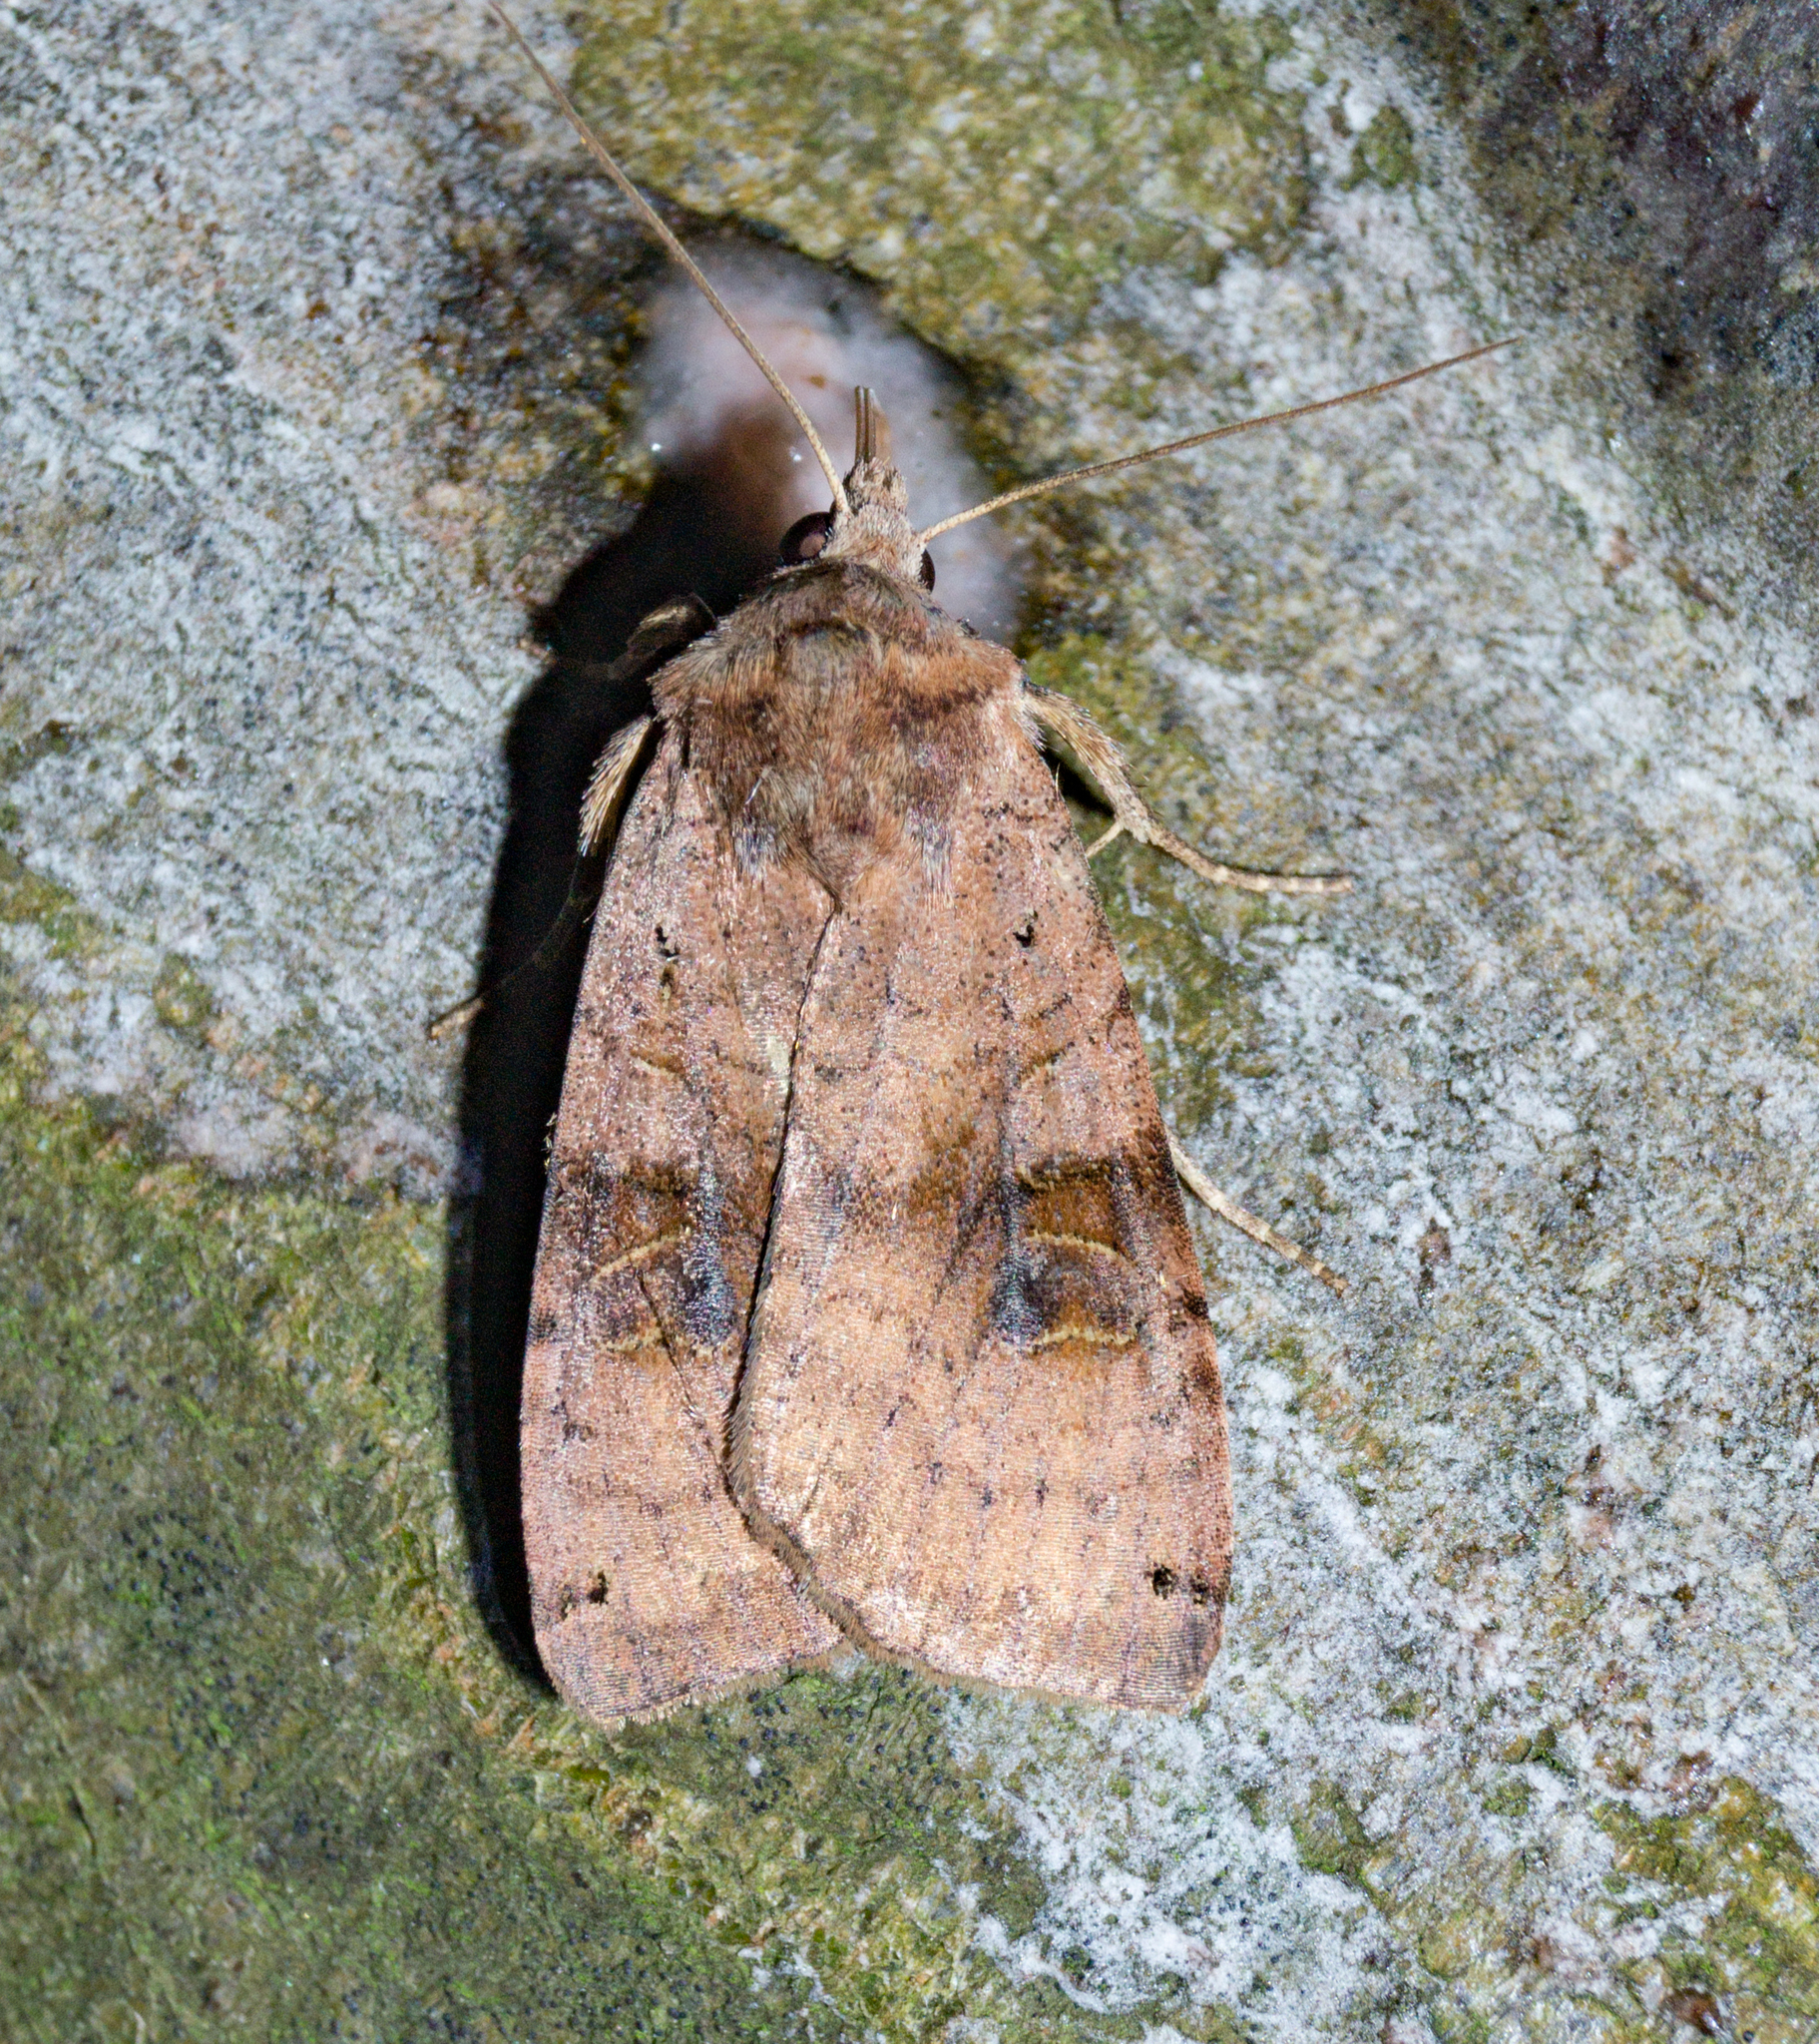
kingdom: Animalia
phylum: Arthropoda
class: Insecta
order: Lepidoptera
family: Noctuidae
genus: Xestia
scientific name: Xestia baja
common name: Dotted clay
